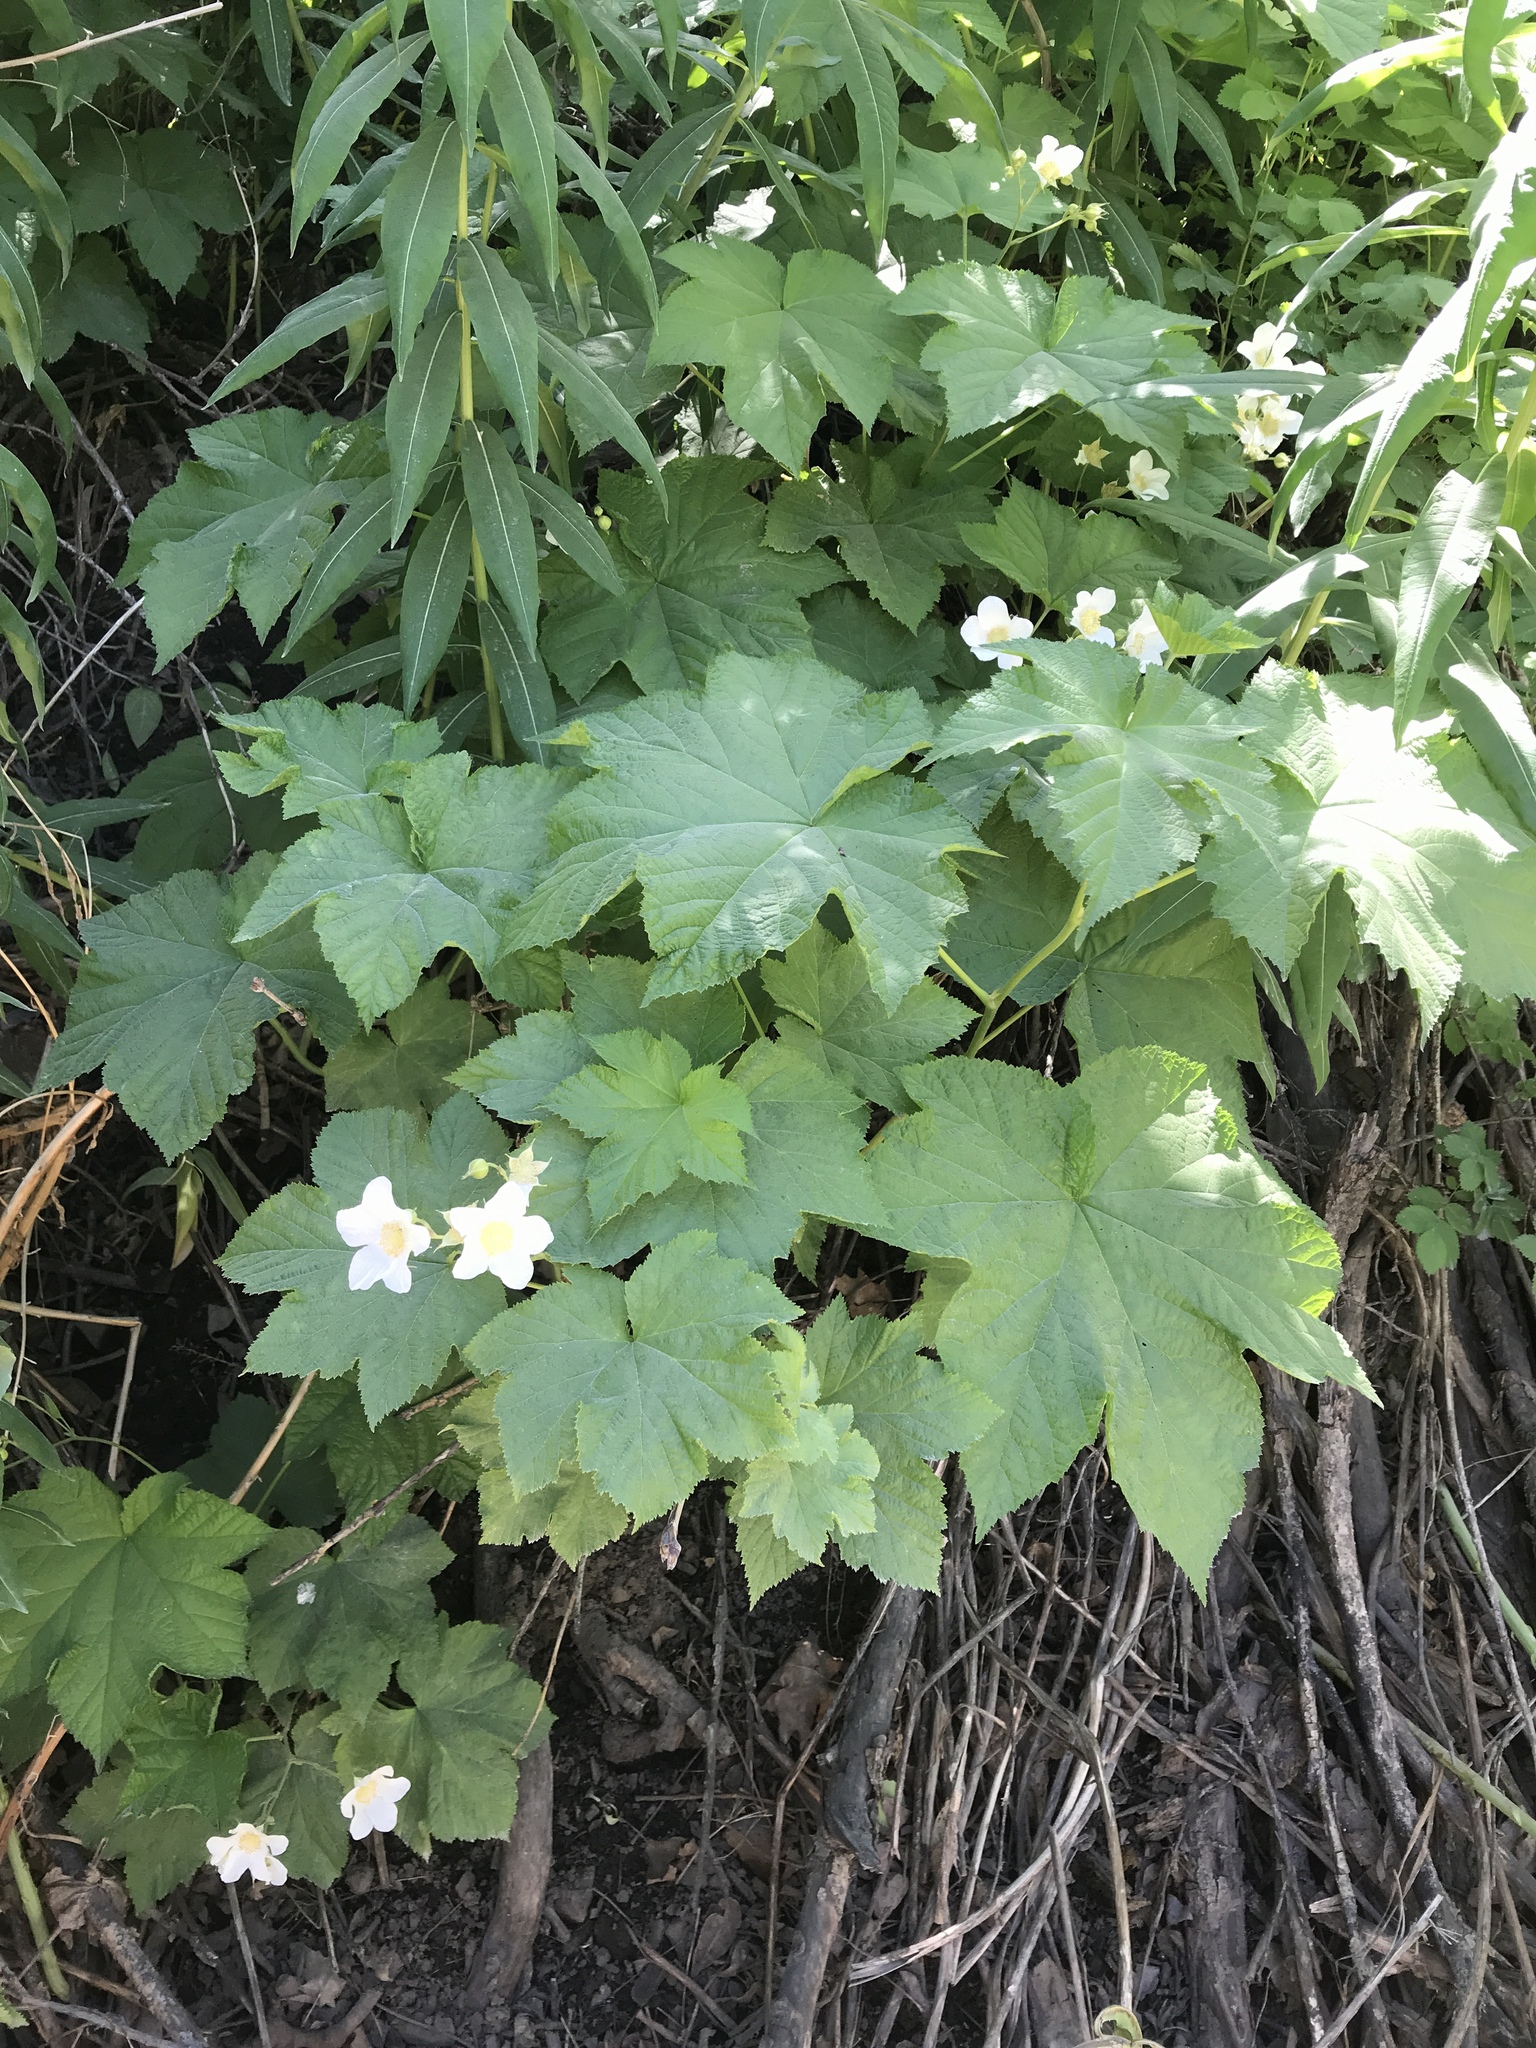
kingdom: Plantae
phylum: Tracheophyta
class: Magnoliopsida
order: Rosales
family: Rosaceae
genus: Rubus
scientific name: Rubus parviflorus
